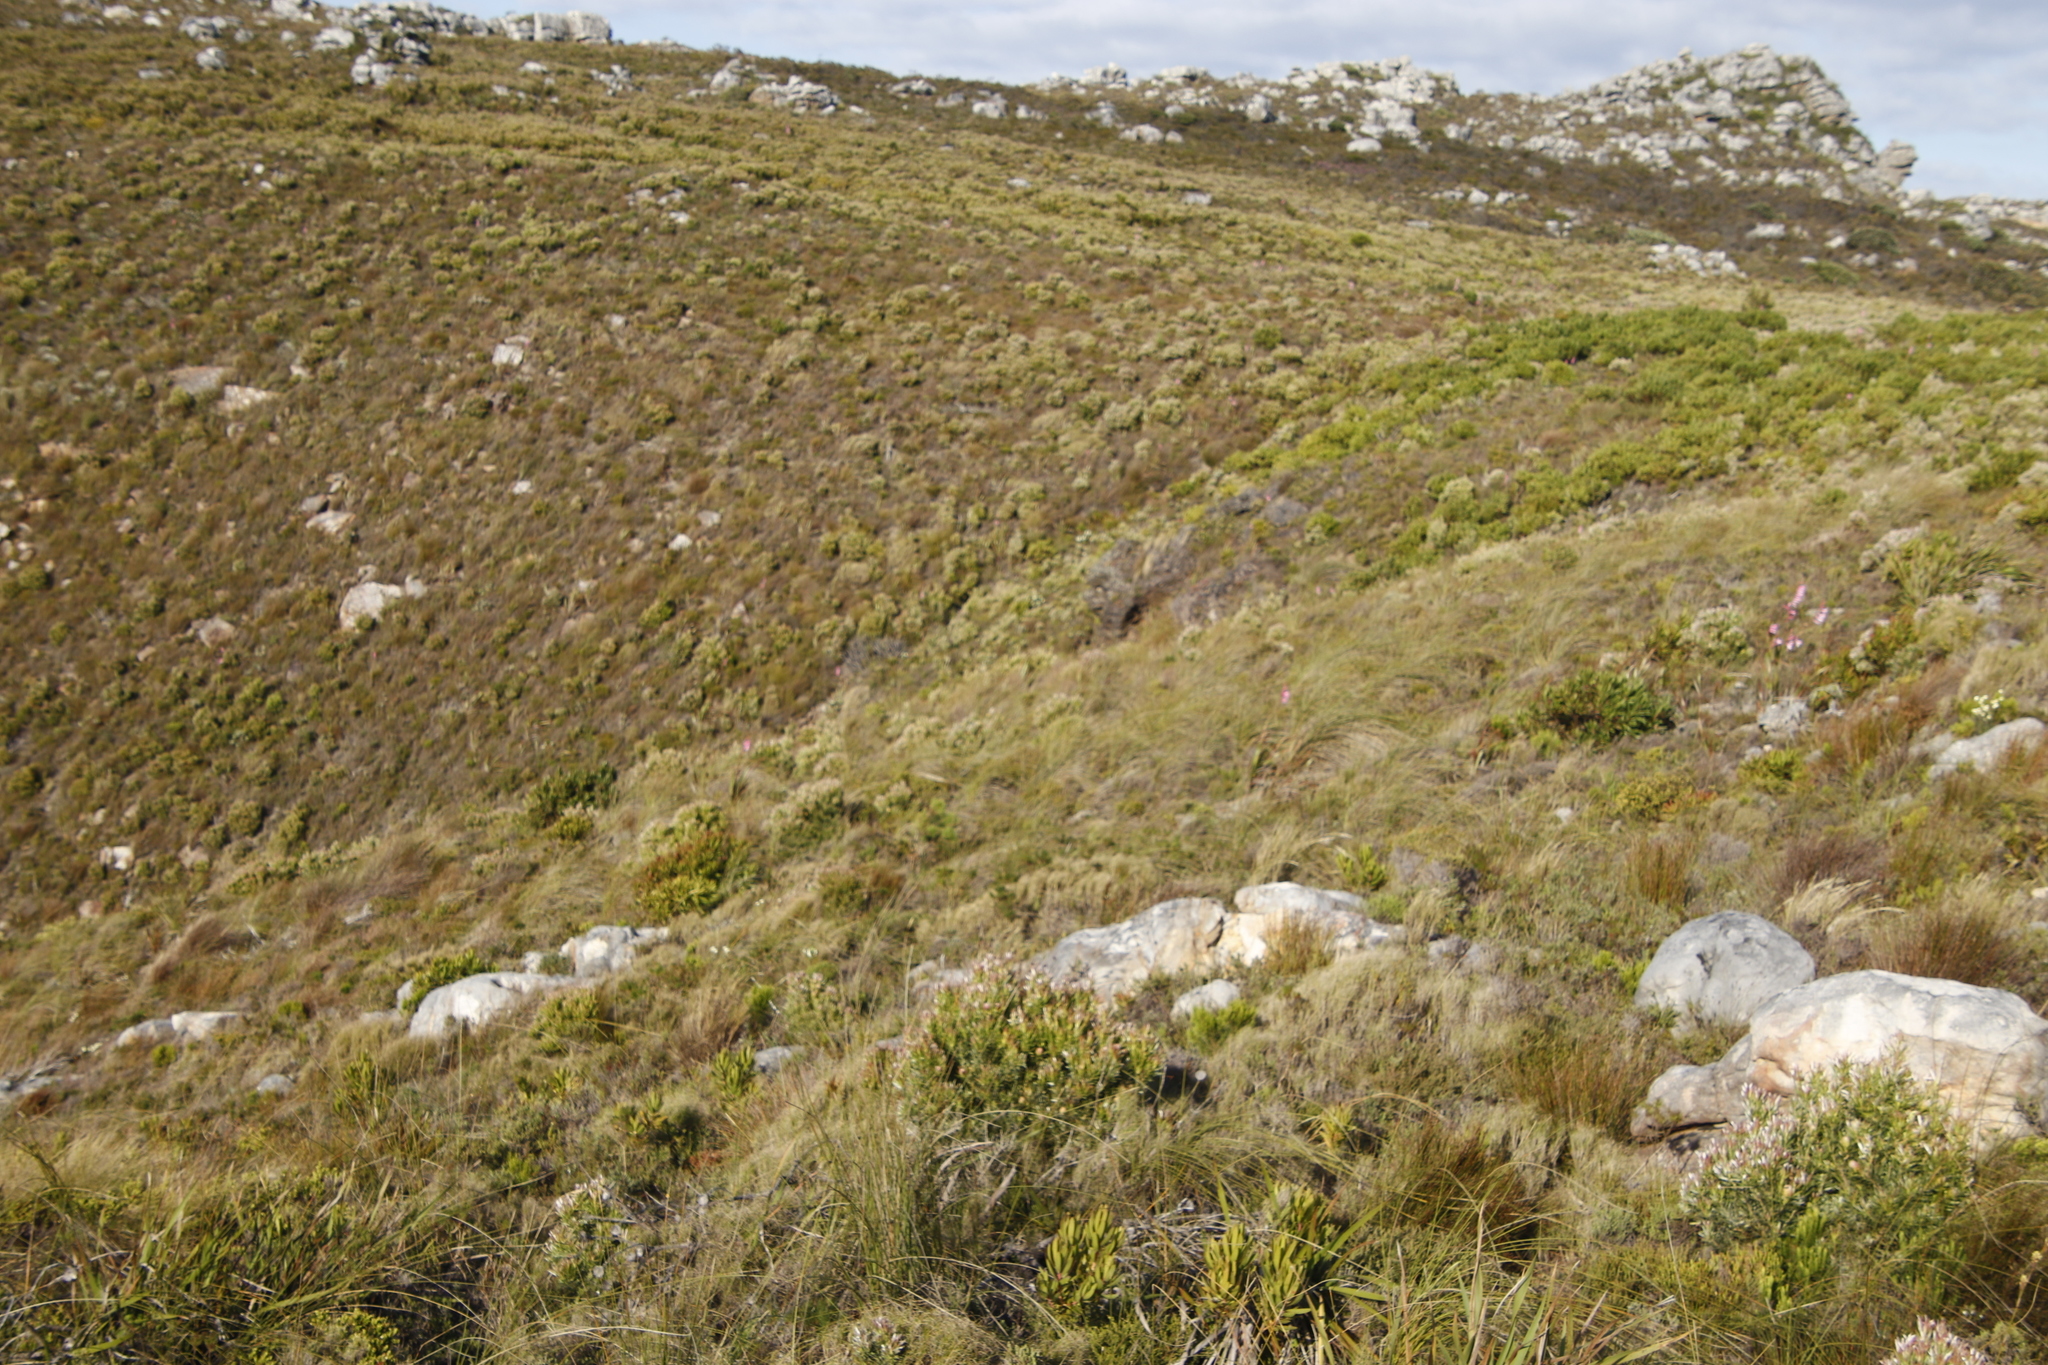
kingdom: Plantae
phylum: Tracheophyta
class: Liliopsida
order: Asparagales
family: Iridaceae
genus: Bobartia
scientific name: Bobartia indica
